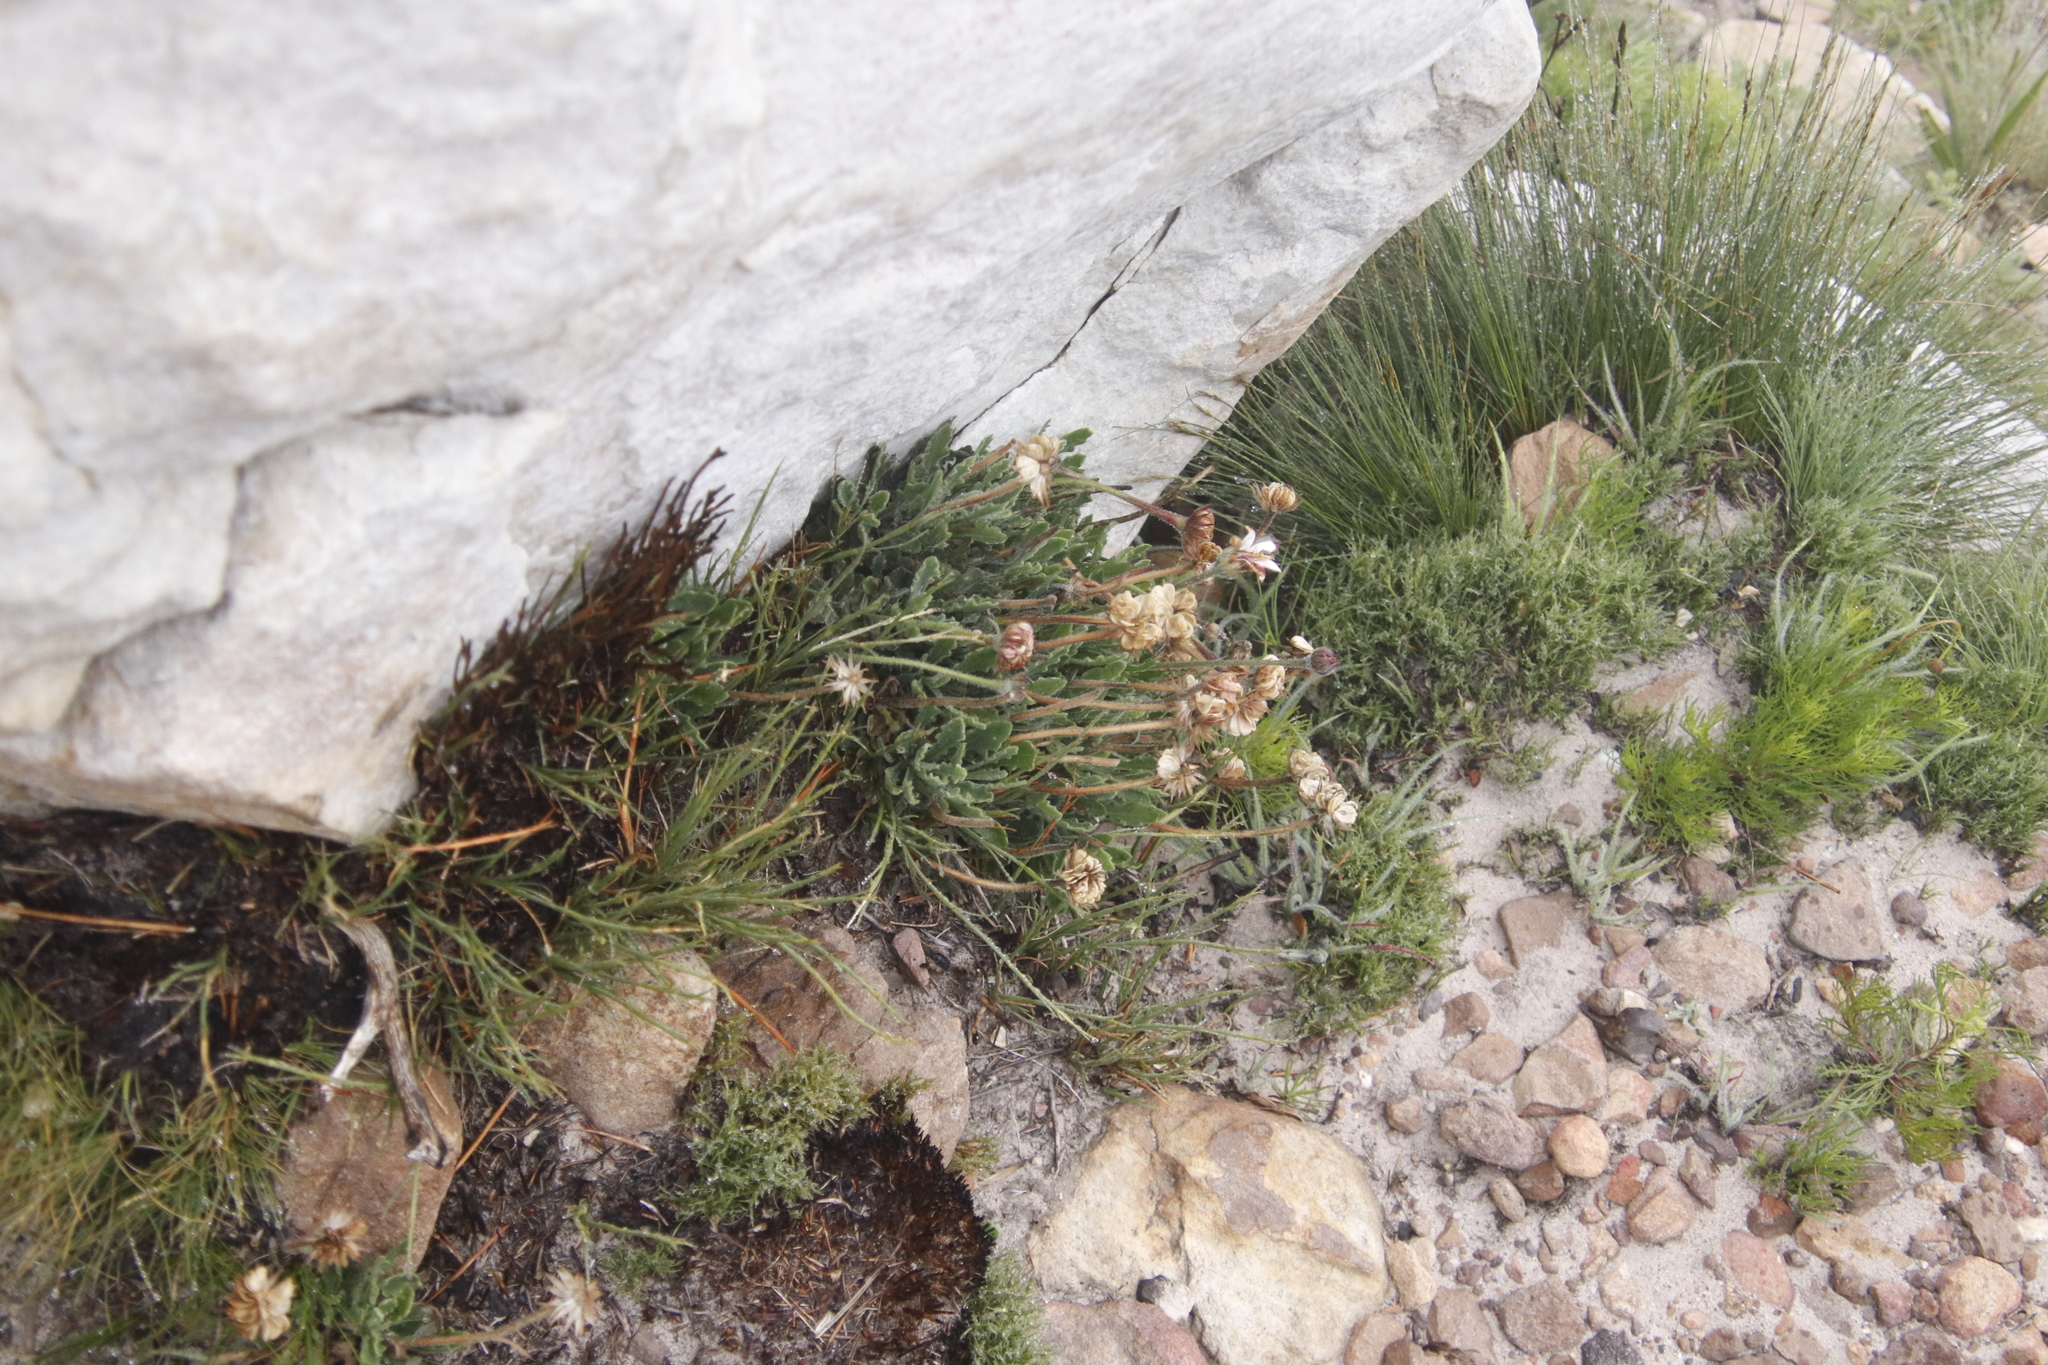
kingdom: Plantae
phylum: Tracheophyta
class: Magnoliopsida
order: Asterales
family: Asteraceae
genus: Dimorphotheca
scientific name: Dimorphotheca montana
